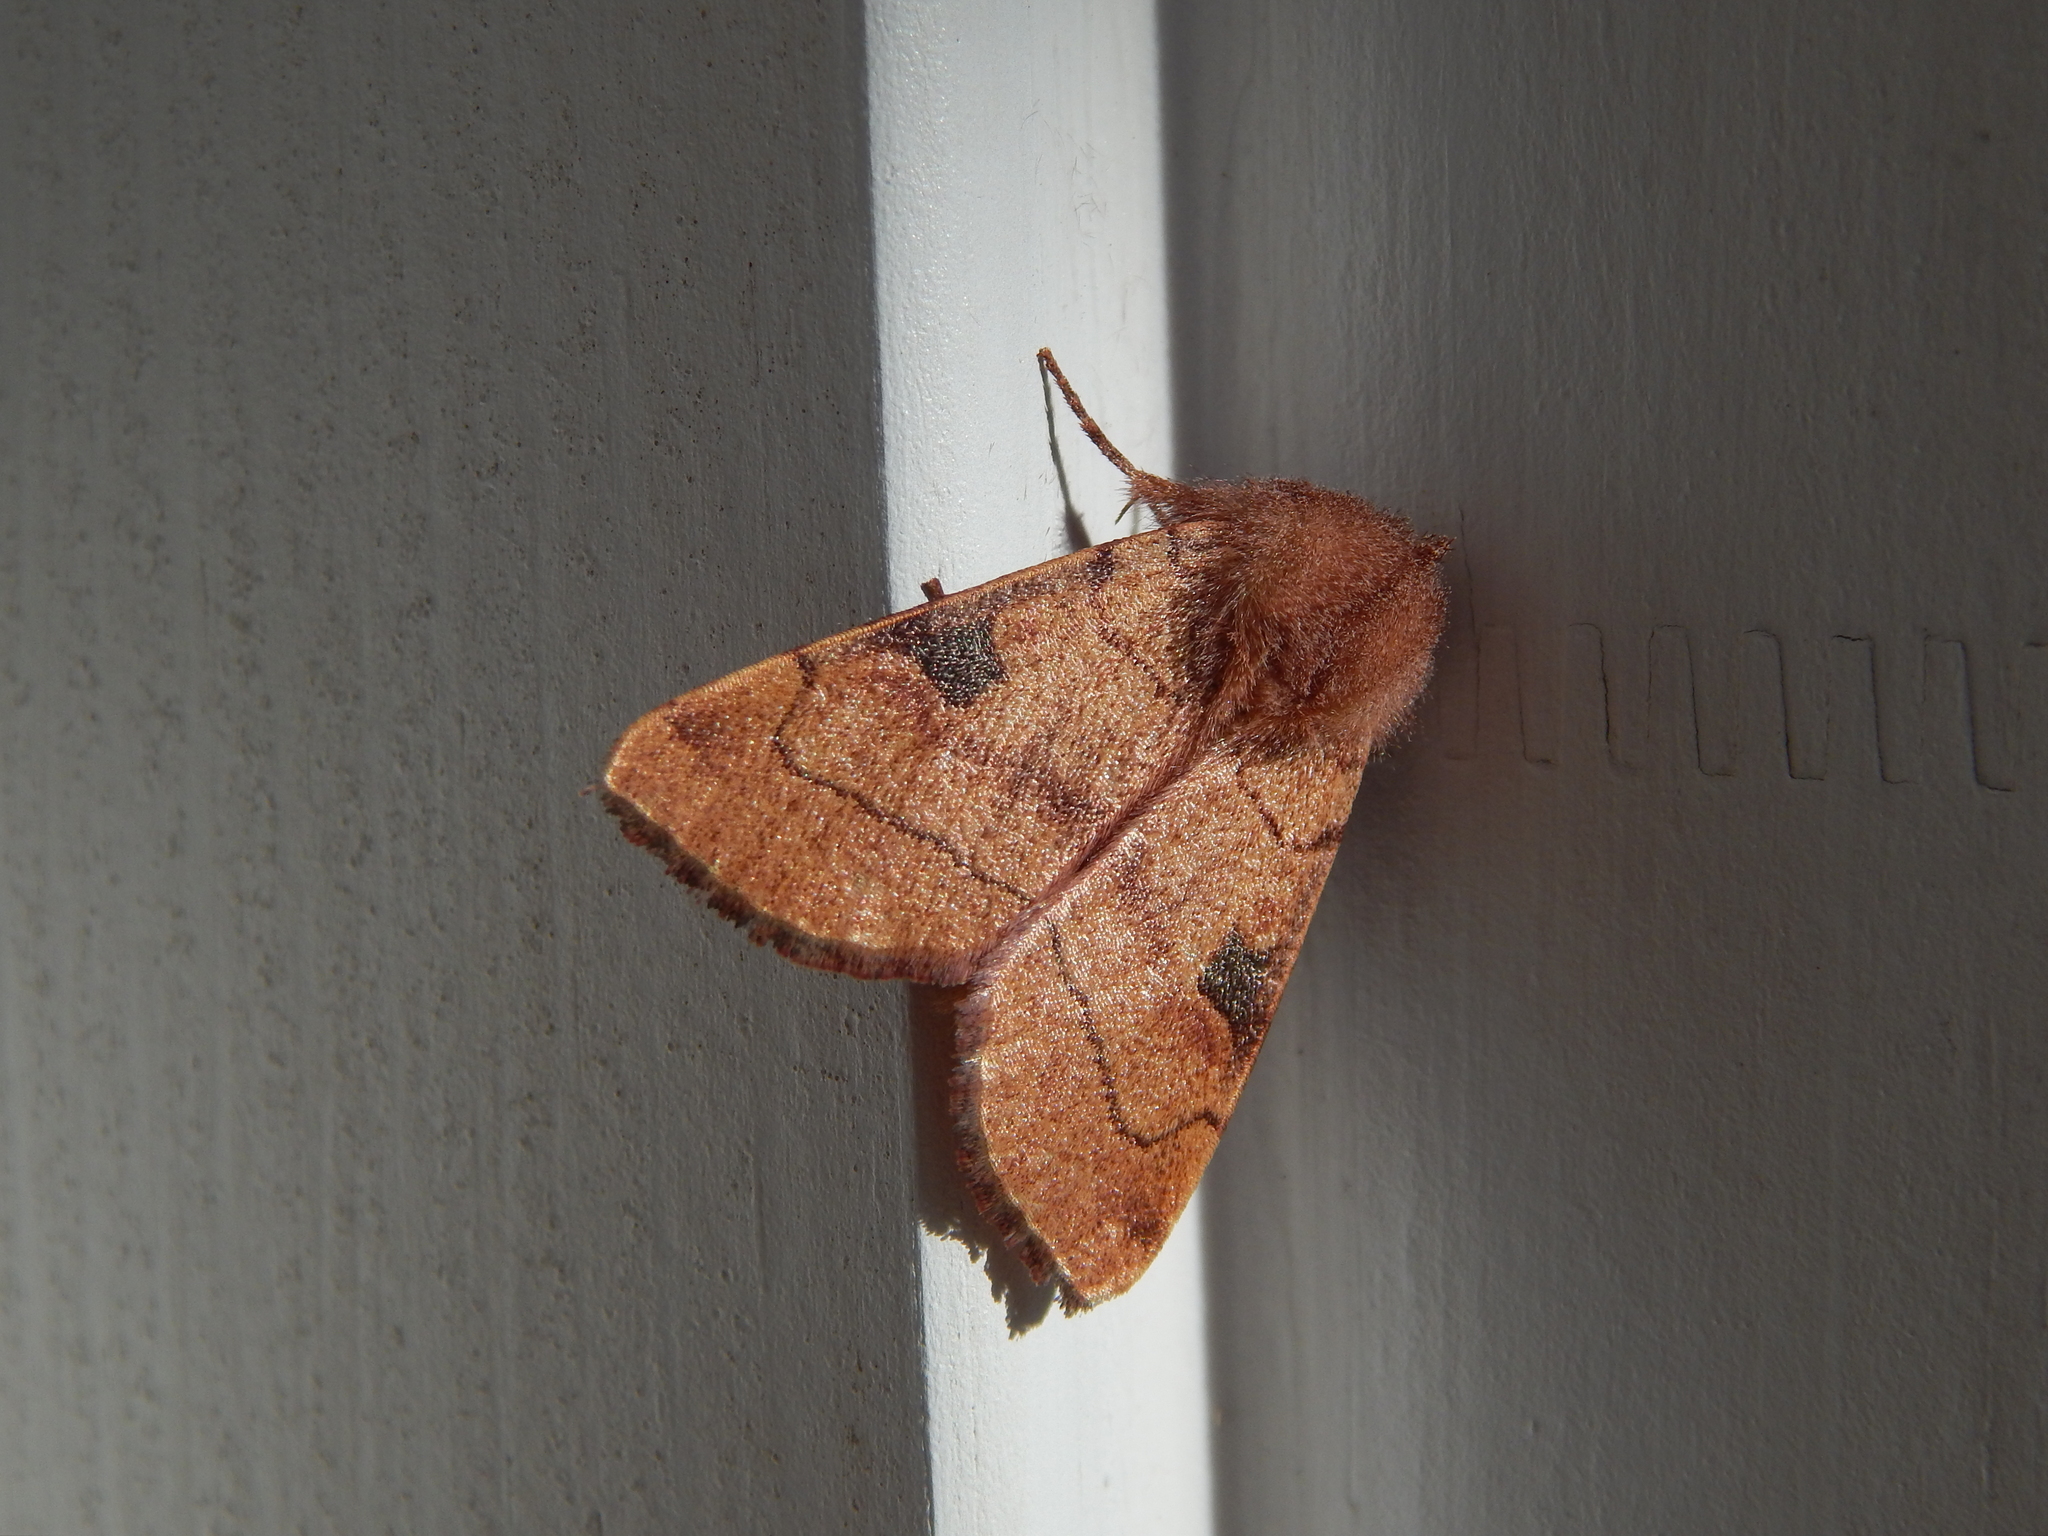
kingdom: Animalia
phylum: Arthropoda
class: Insecta
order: Lepidoptera
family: Noctuidae
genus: Choephora
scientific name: Choephora fungorum
